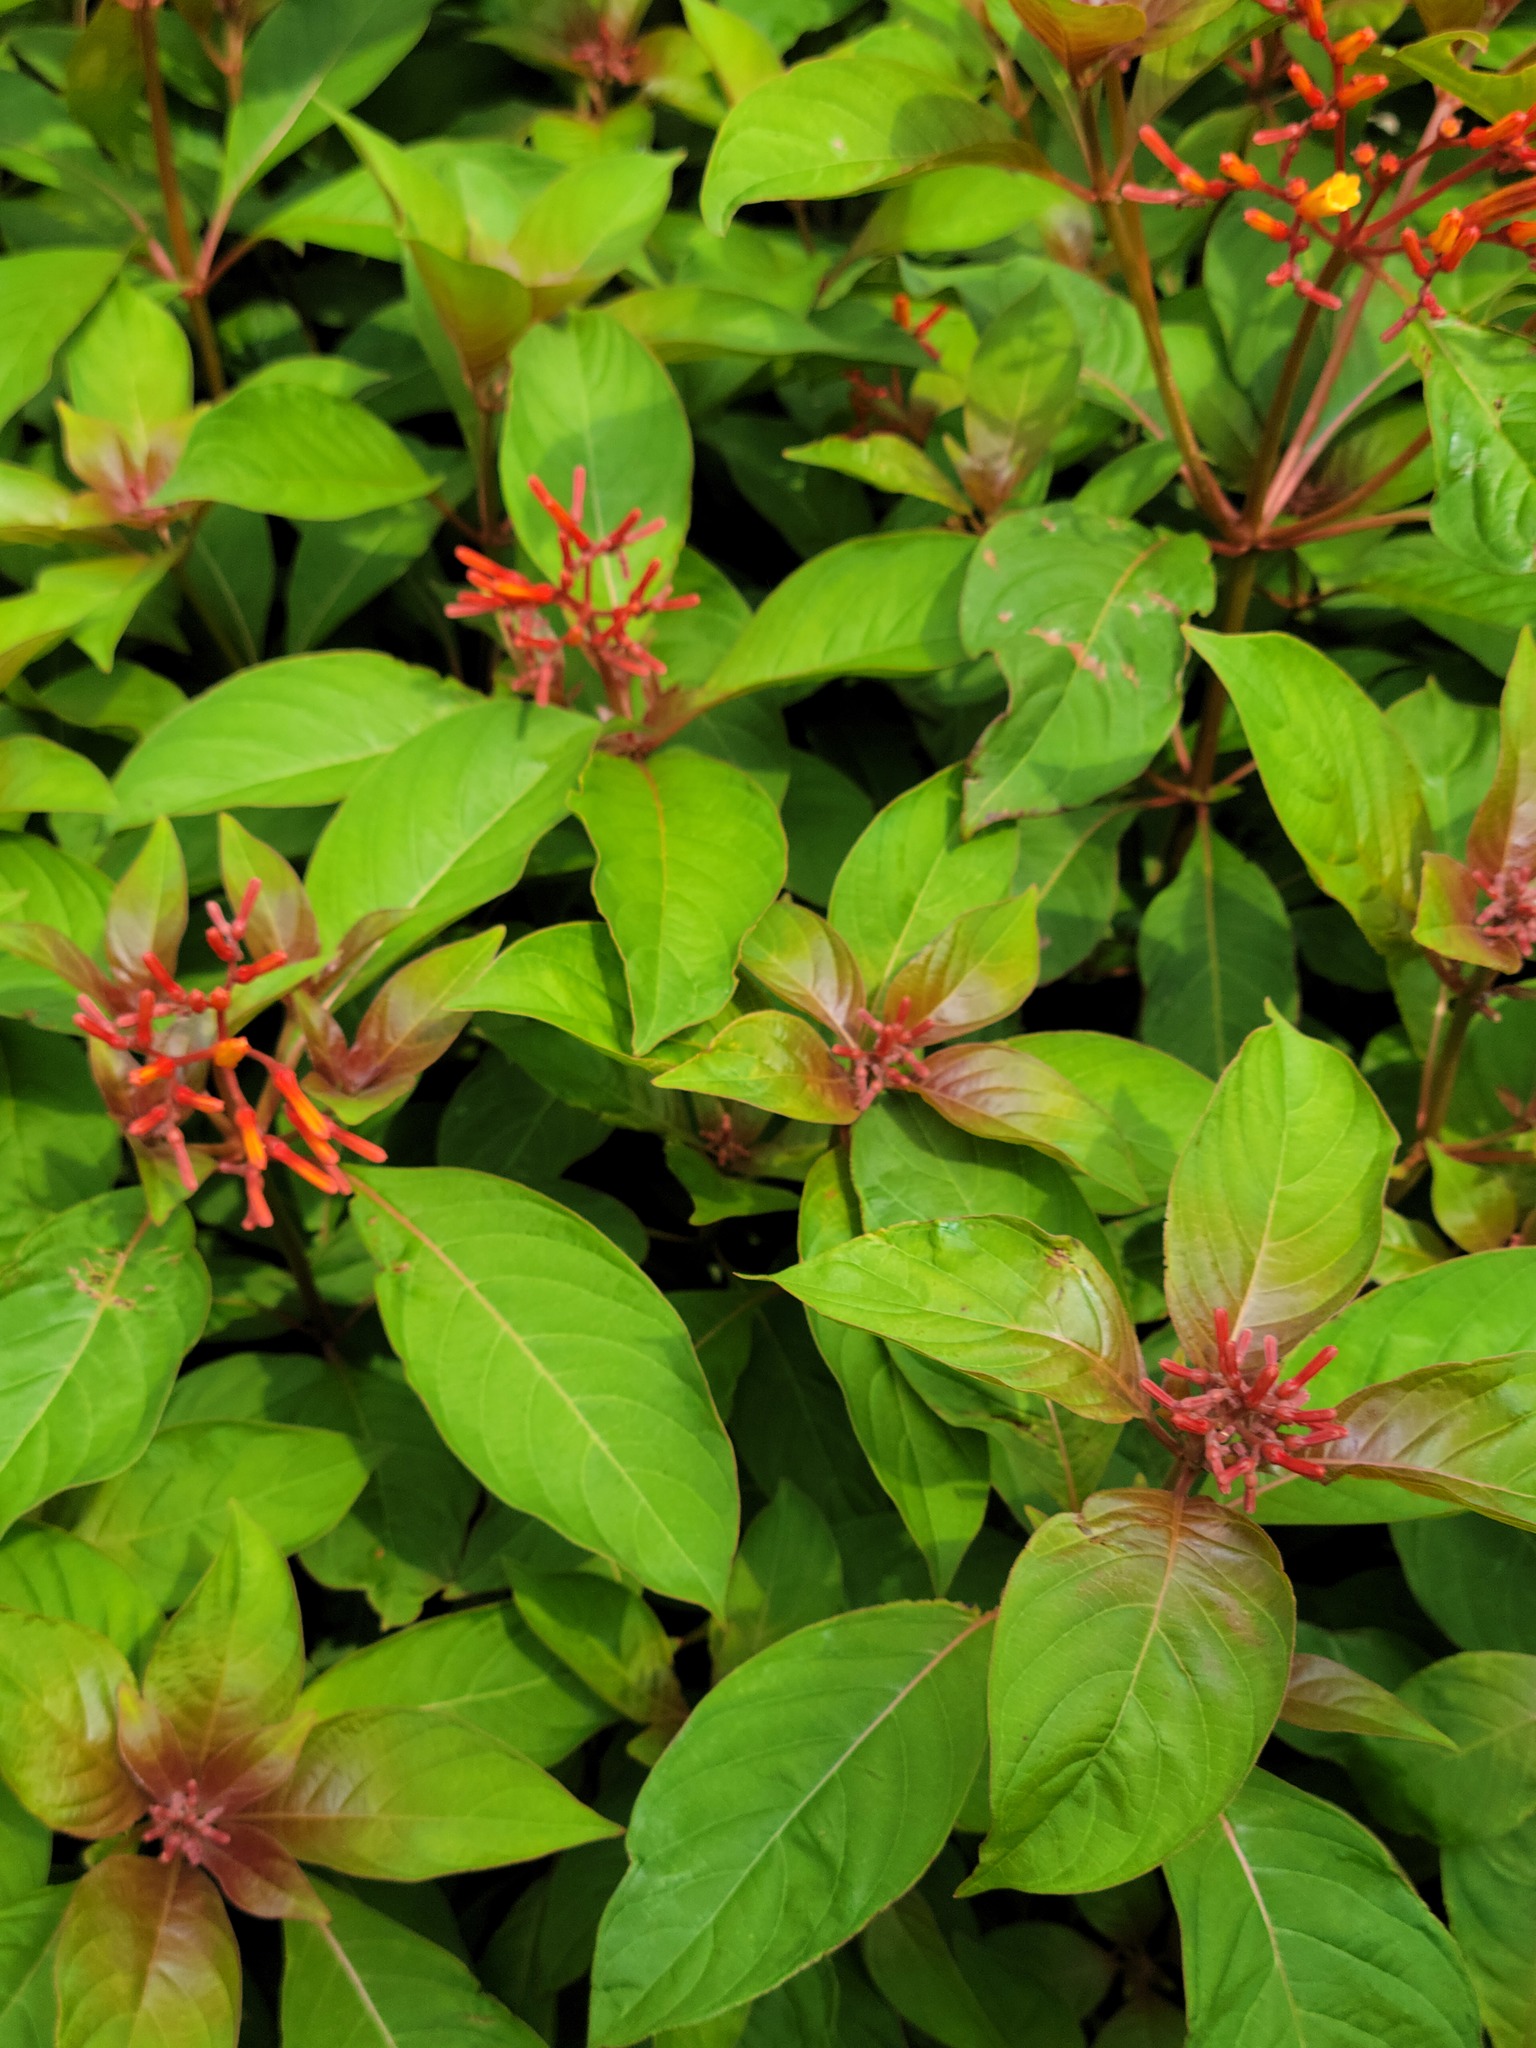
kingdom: Plantae
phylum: Tracheophyta
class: Magnoliopsida
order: Gentianales
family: Rubiaceae
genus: Hamelia
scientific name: Hamelia patens
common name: Redhead
